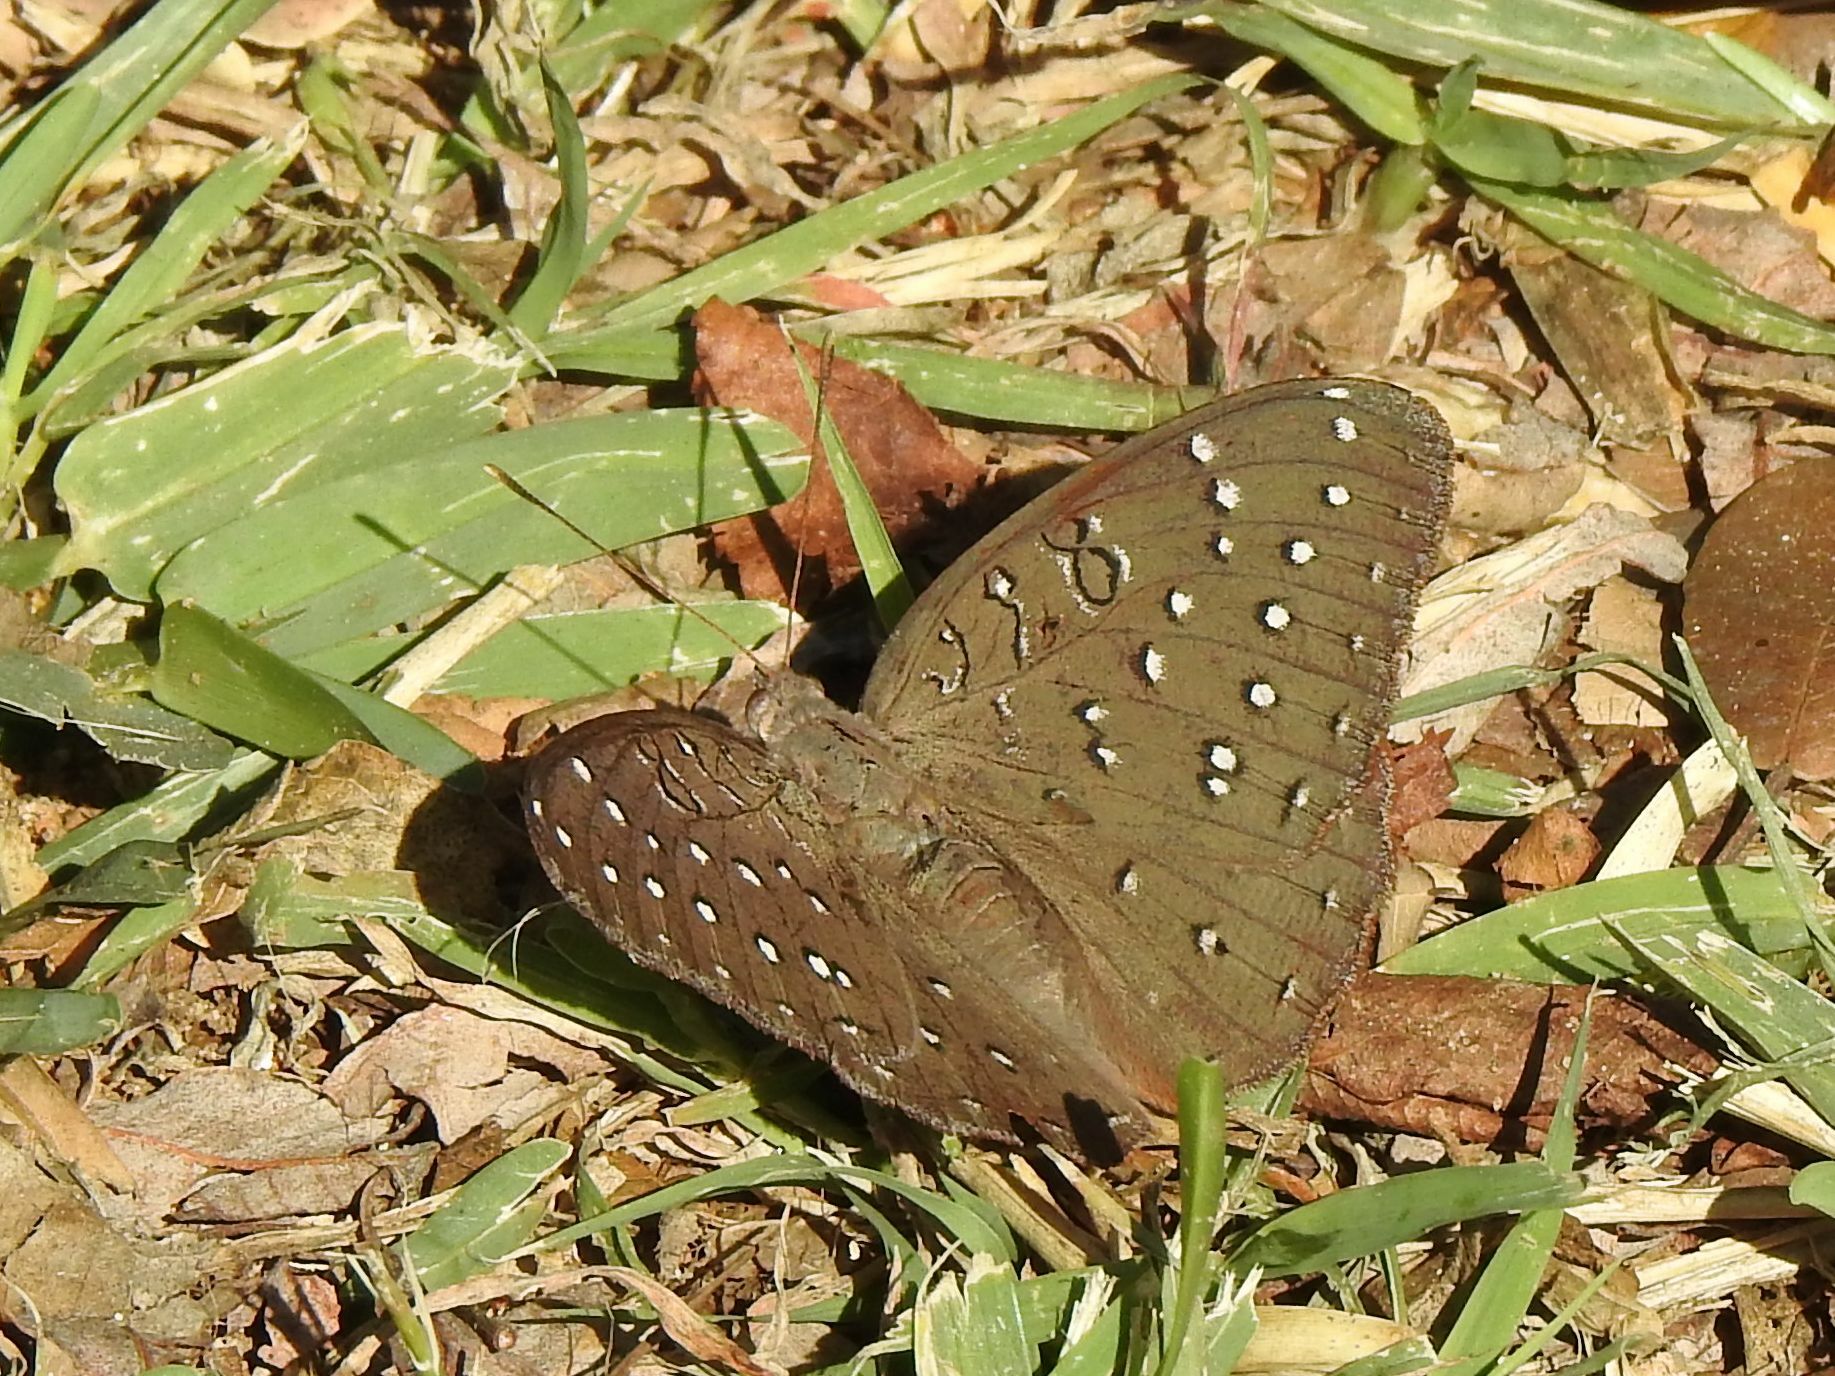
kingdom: Animalia
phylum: Arthropoda
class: Insecta
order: Lepidoptera
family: Nymphalidae
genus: Hamanumida
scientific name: Hamanumida daedalus
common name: Guinea-fowl butterfly
